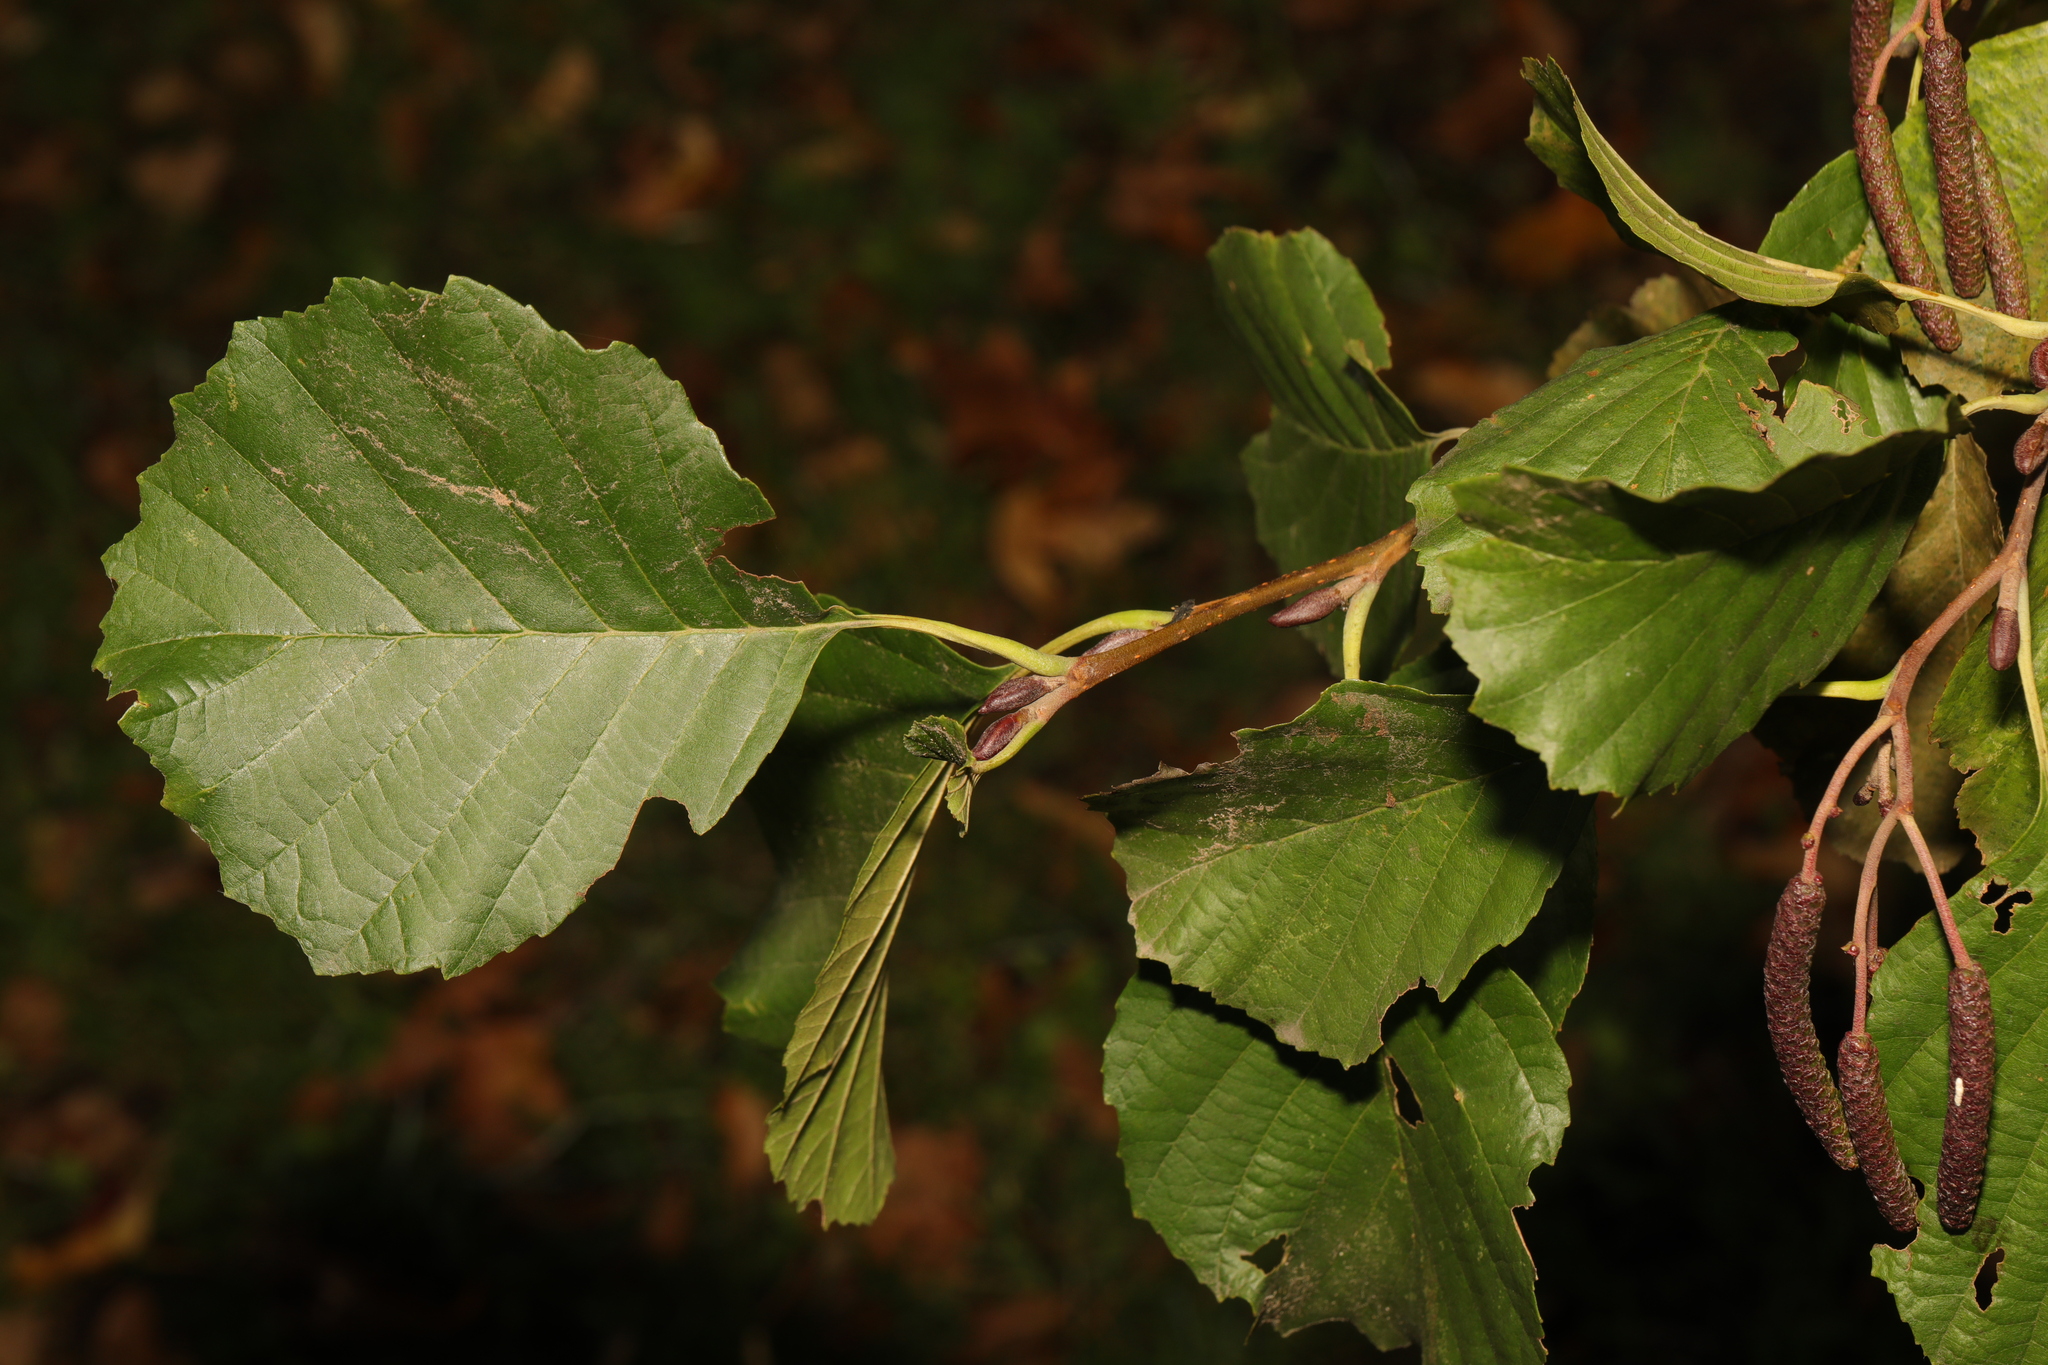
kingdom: Plantae
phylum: Tracheophyta
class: Magnoliopsida
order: Fagales
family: Betulaceae
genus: Alnus
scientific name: Alnus glutinosa
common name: Black alder
